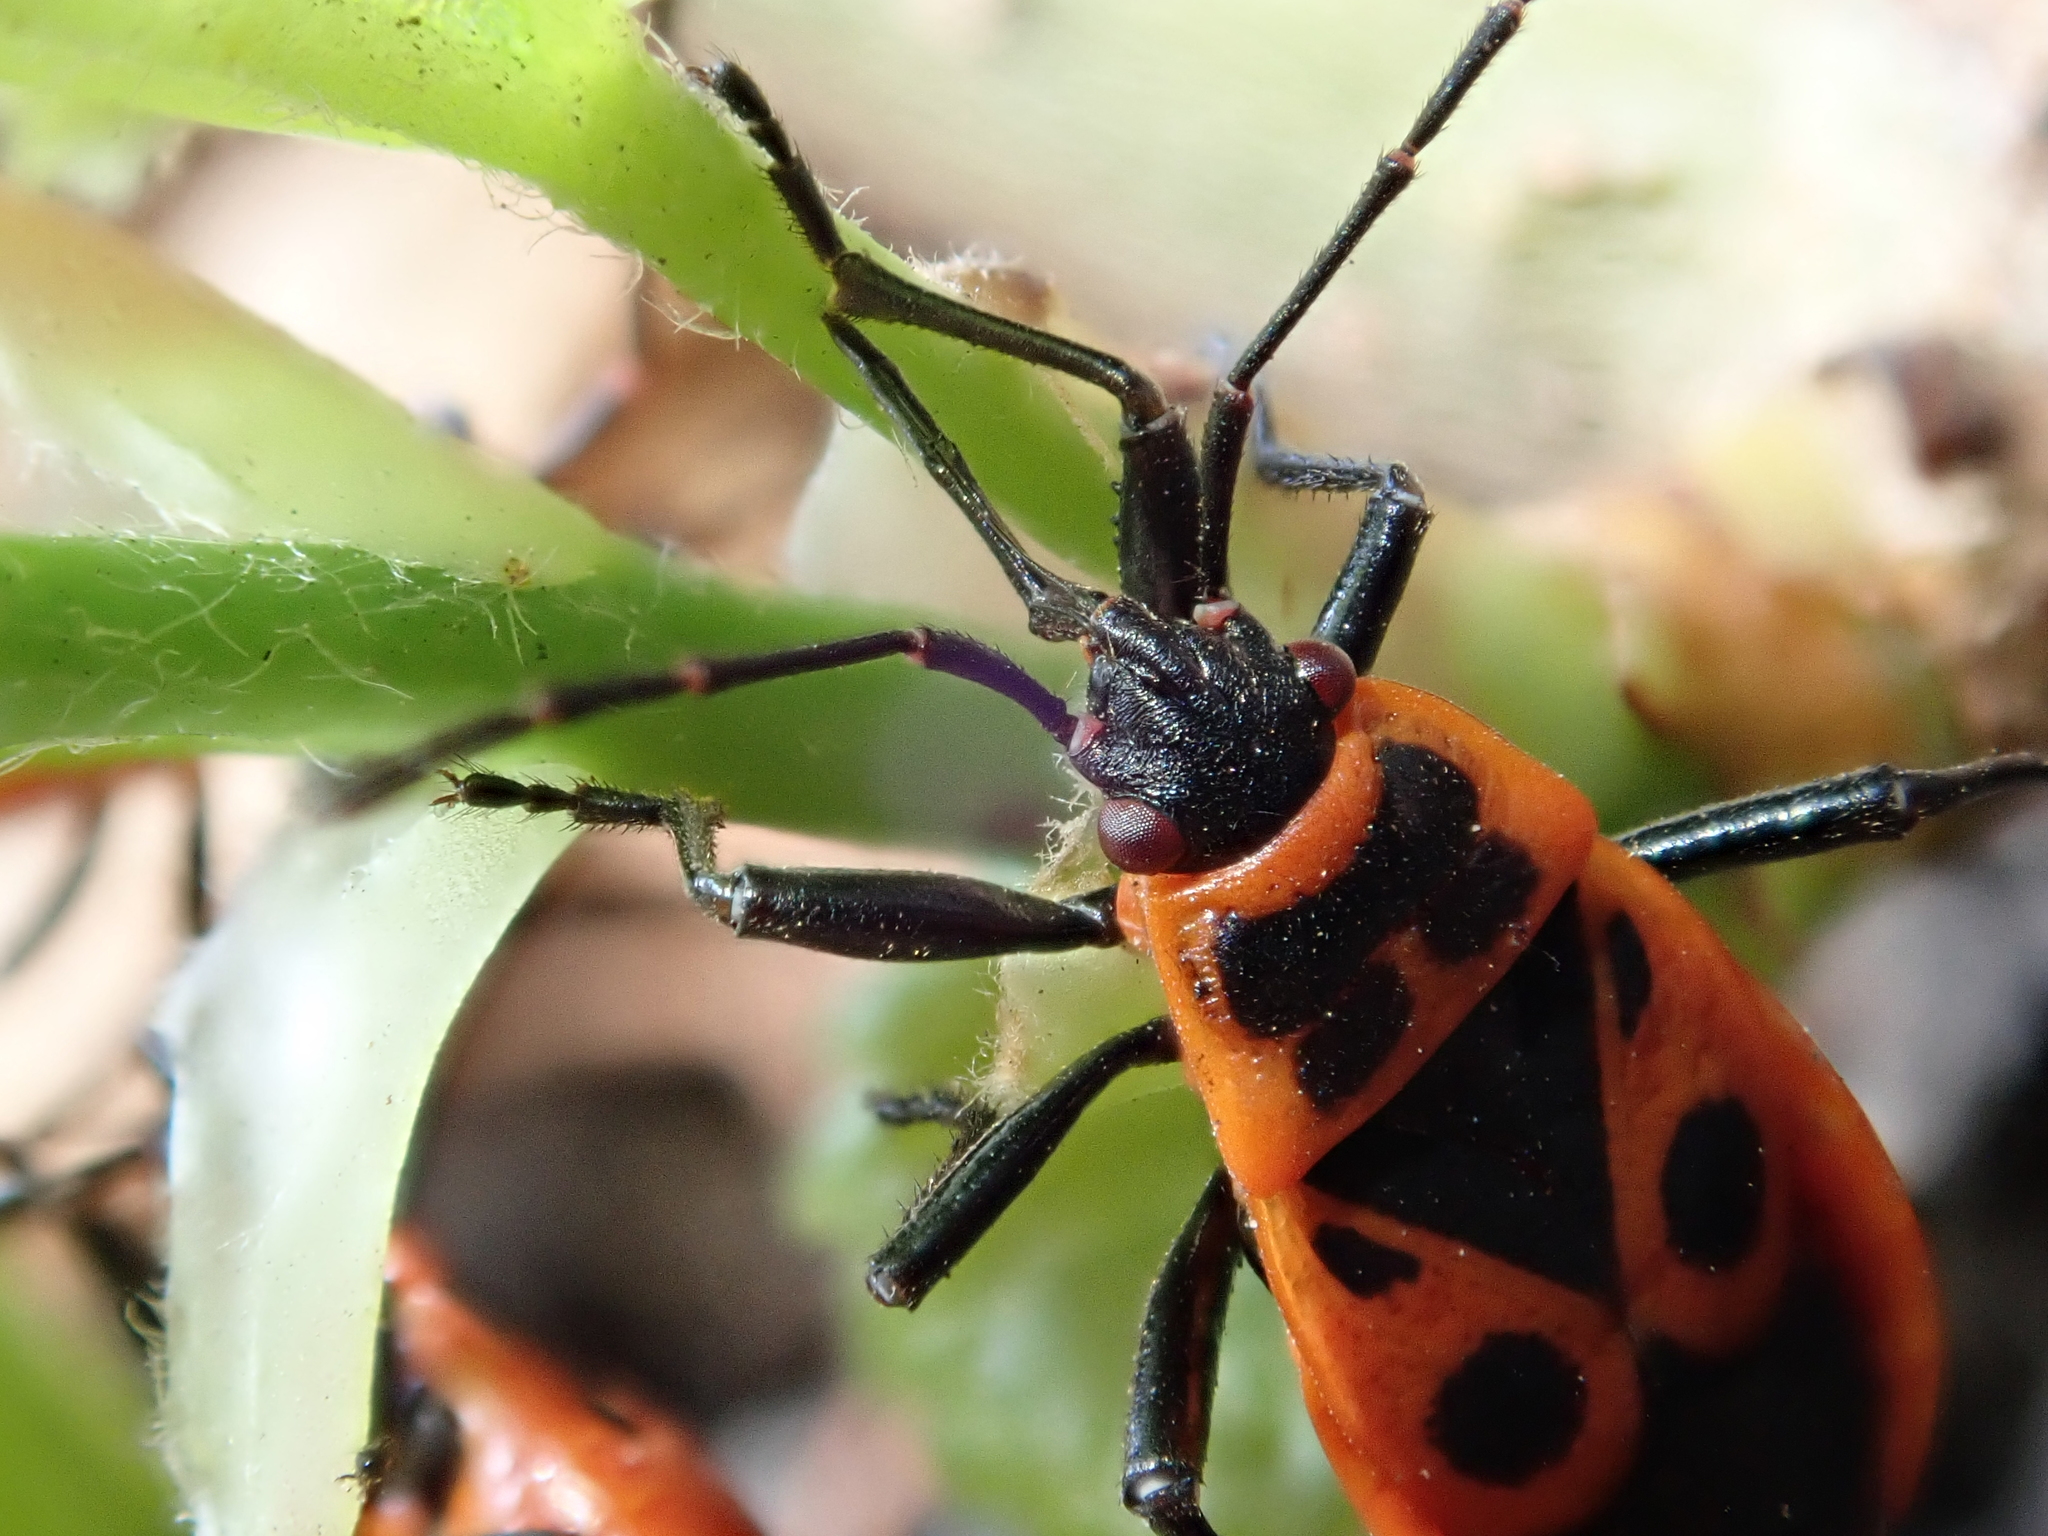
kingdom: Animalia
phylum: Arthropoda
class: Insecta
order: Hemiptera
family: Pyrrhocoridae
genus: Pyrrhocoris
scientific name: Pyrrhocoris apterus
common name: Firebug
